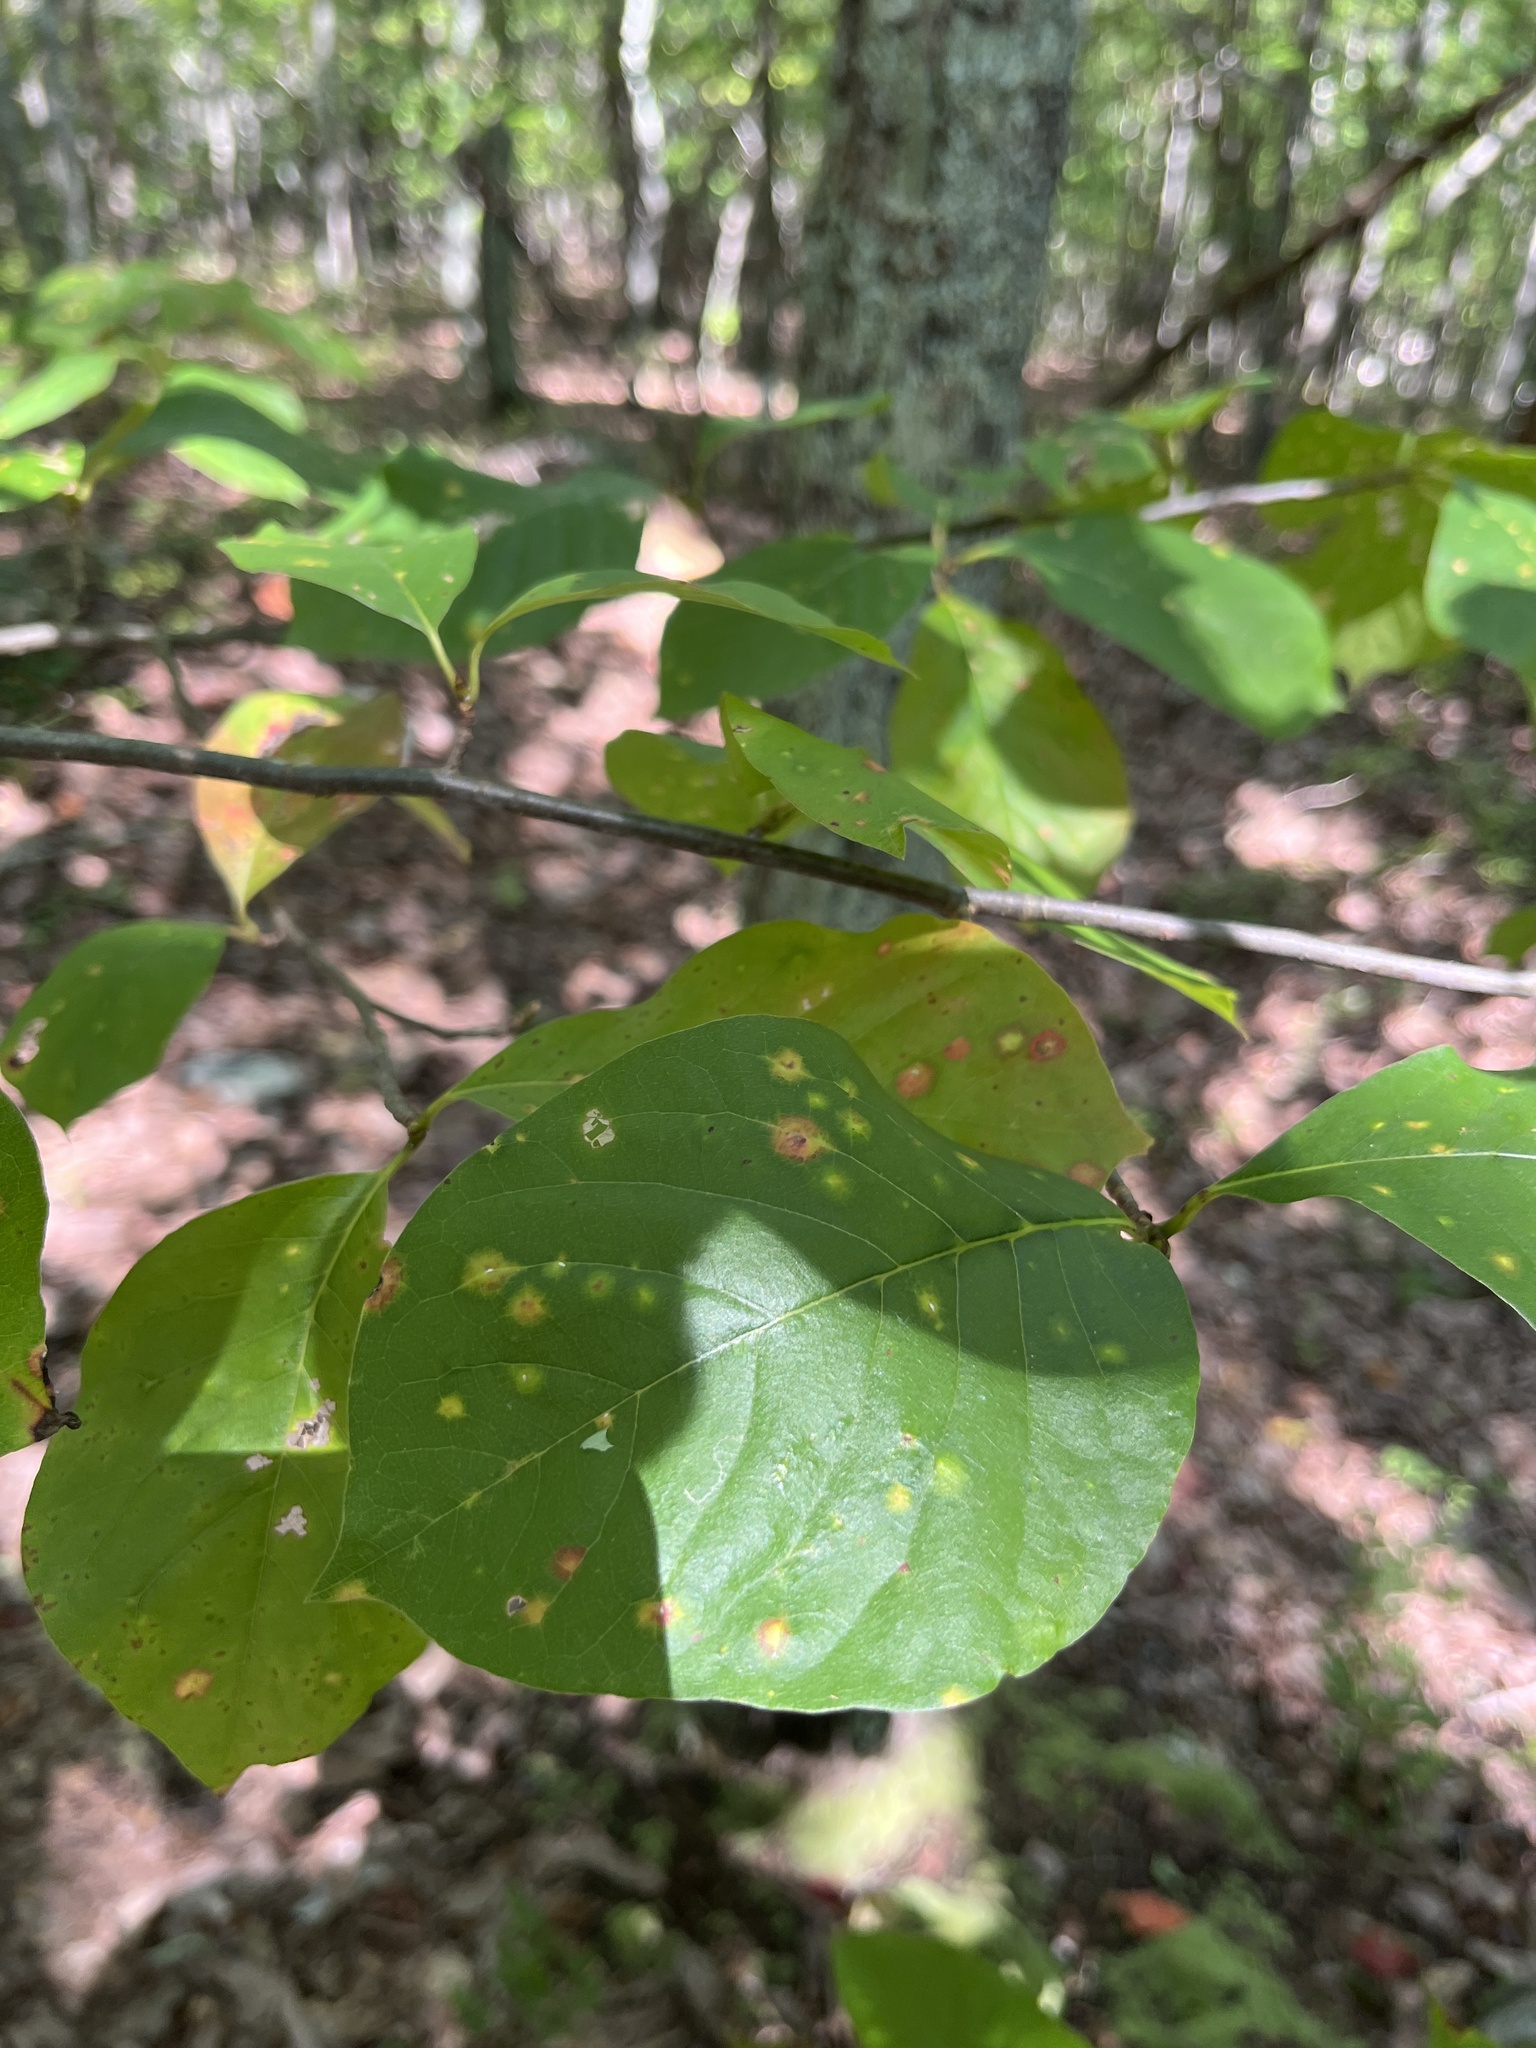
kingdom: Plantae
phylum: Tracheophyta
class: Magnoliopsida
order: Cornales
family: Nyssaceae
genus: Nyssa
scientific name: Nyssa sylvatica
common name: Black tupelo
